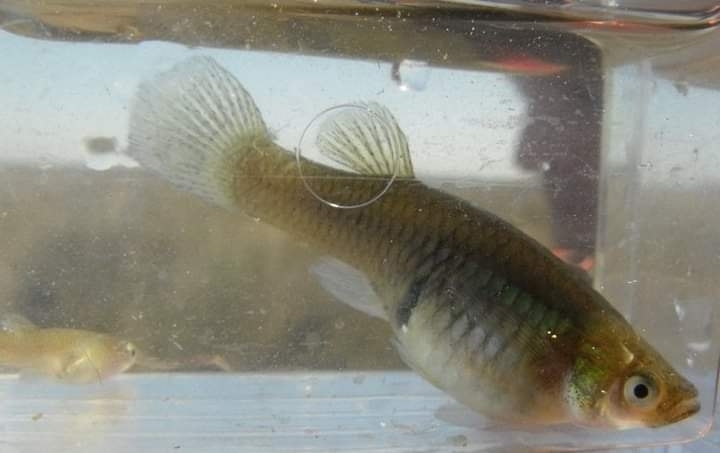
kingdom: Animalia
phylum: Chordata
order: Cyprinodontiformes
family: Poeciliidae
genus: Gambusia
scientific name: Gambusia holbrooki
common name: Eastern mosquitofish
